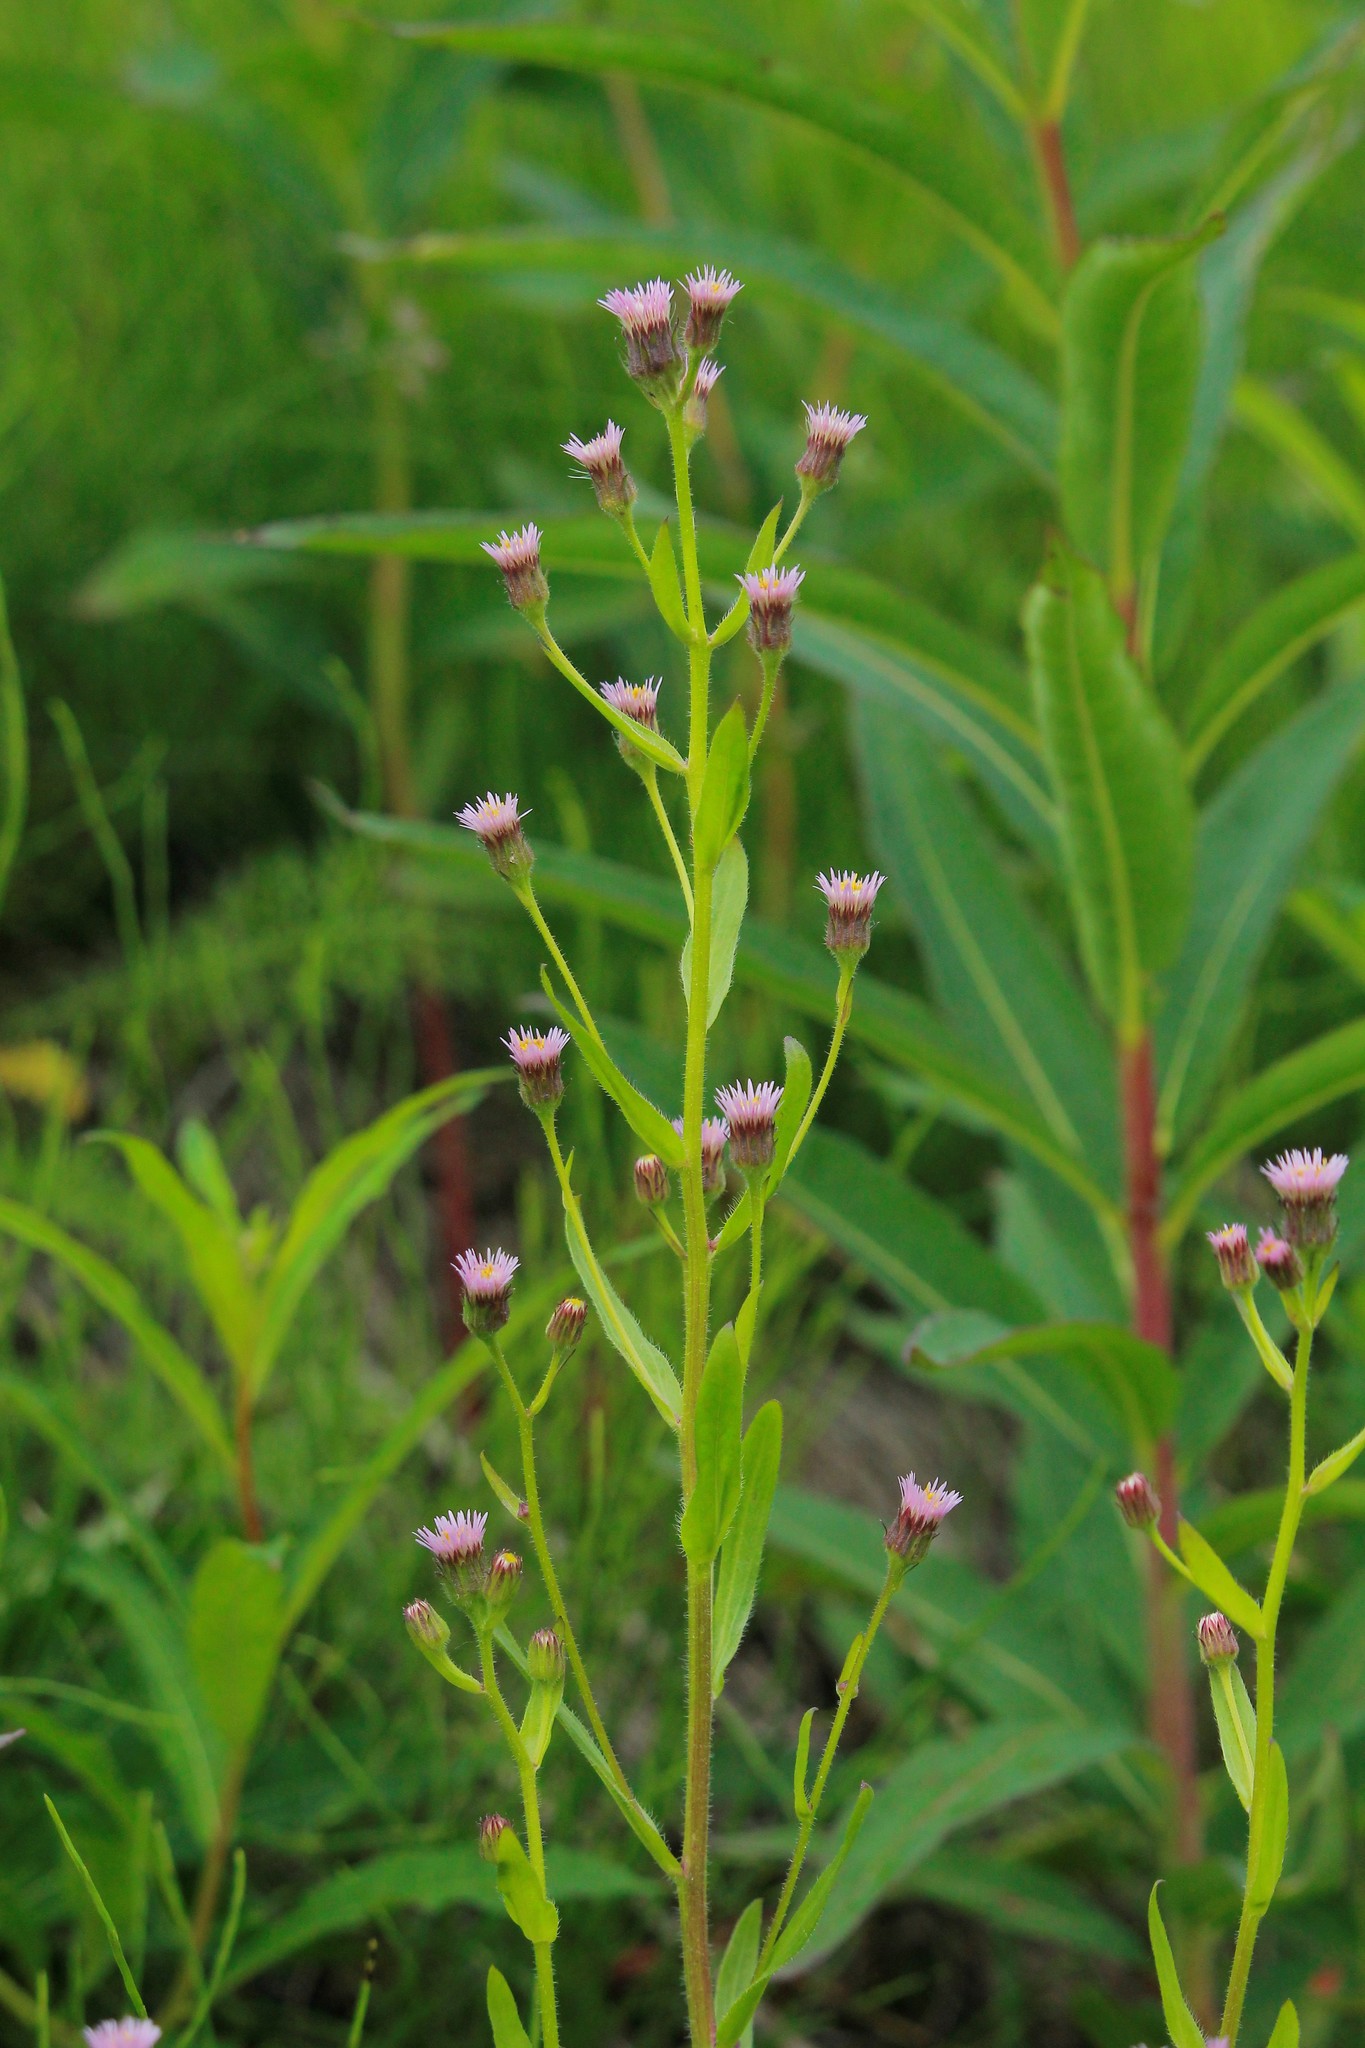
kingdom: Plantae
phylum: Tracheophyta
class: Magnoliopsida
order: Asterales
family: Asteraceae
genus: Erigeron
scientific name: Erigeron
